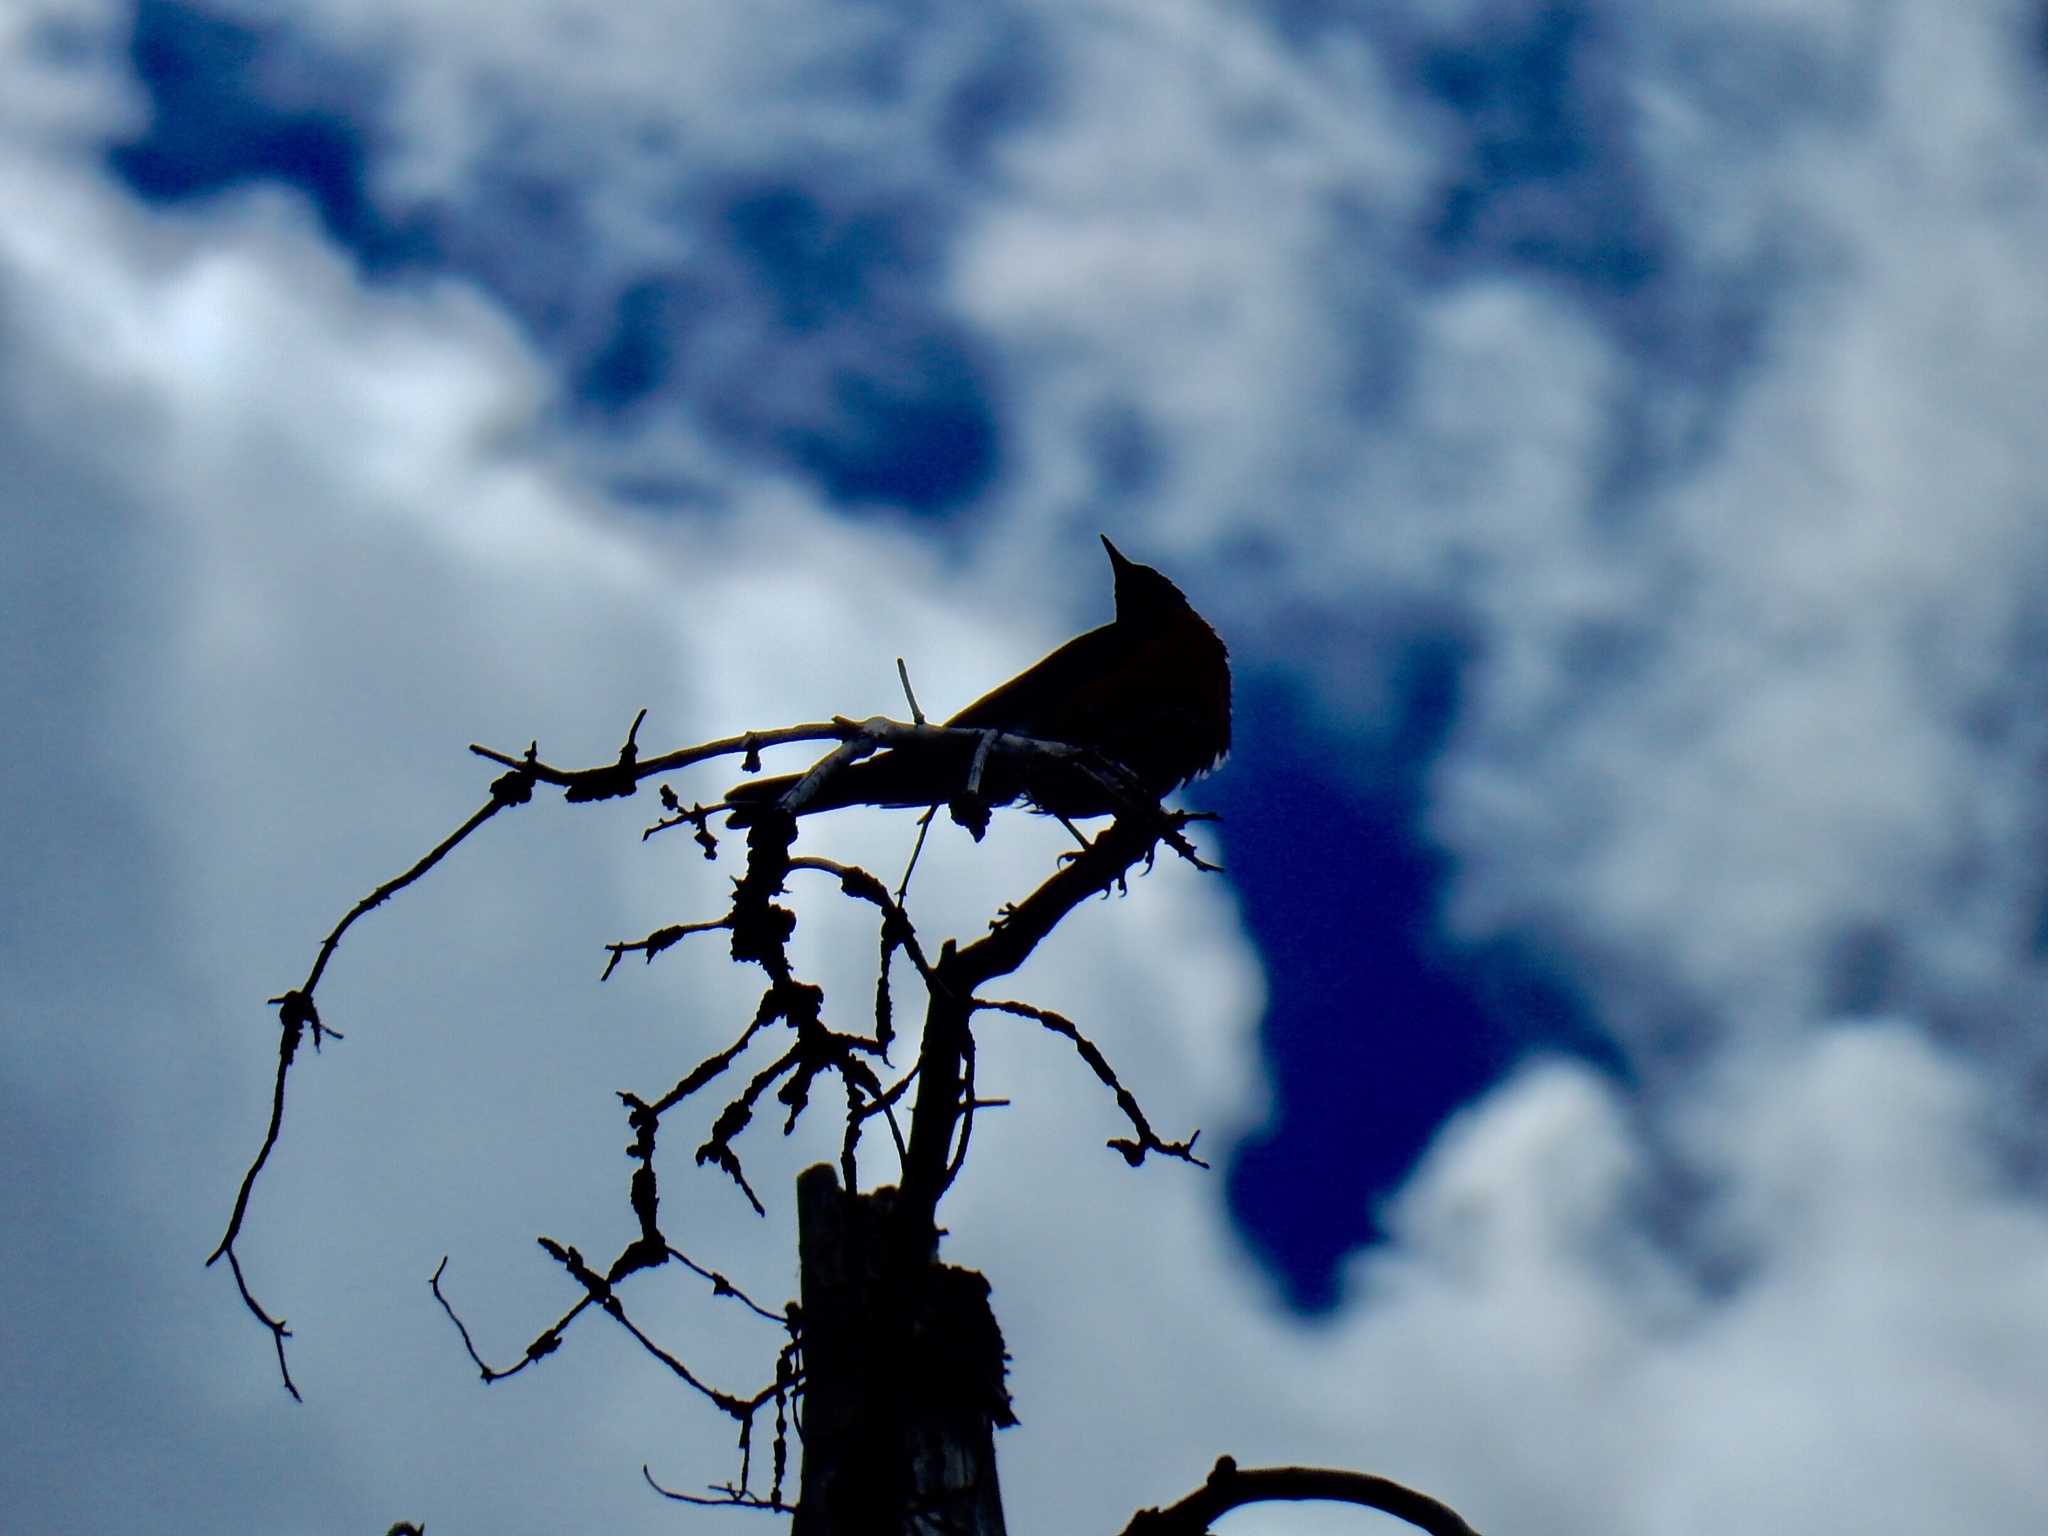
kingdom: Animalia
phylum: Chordata
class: Aves
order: Passeriformes
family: Turdidae
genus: Turdus
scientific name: Turdus migratorius
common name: American robin
